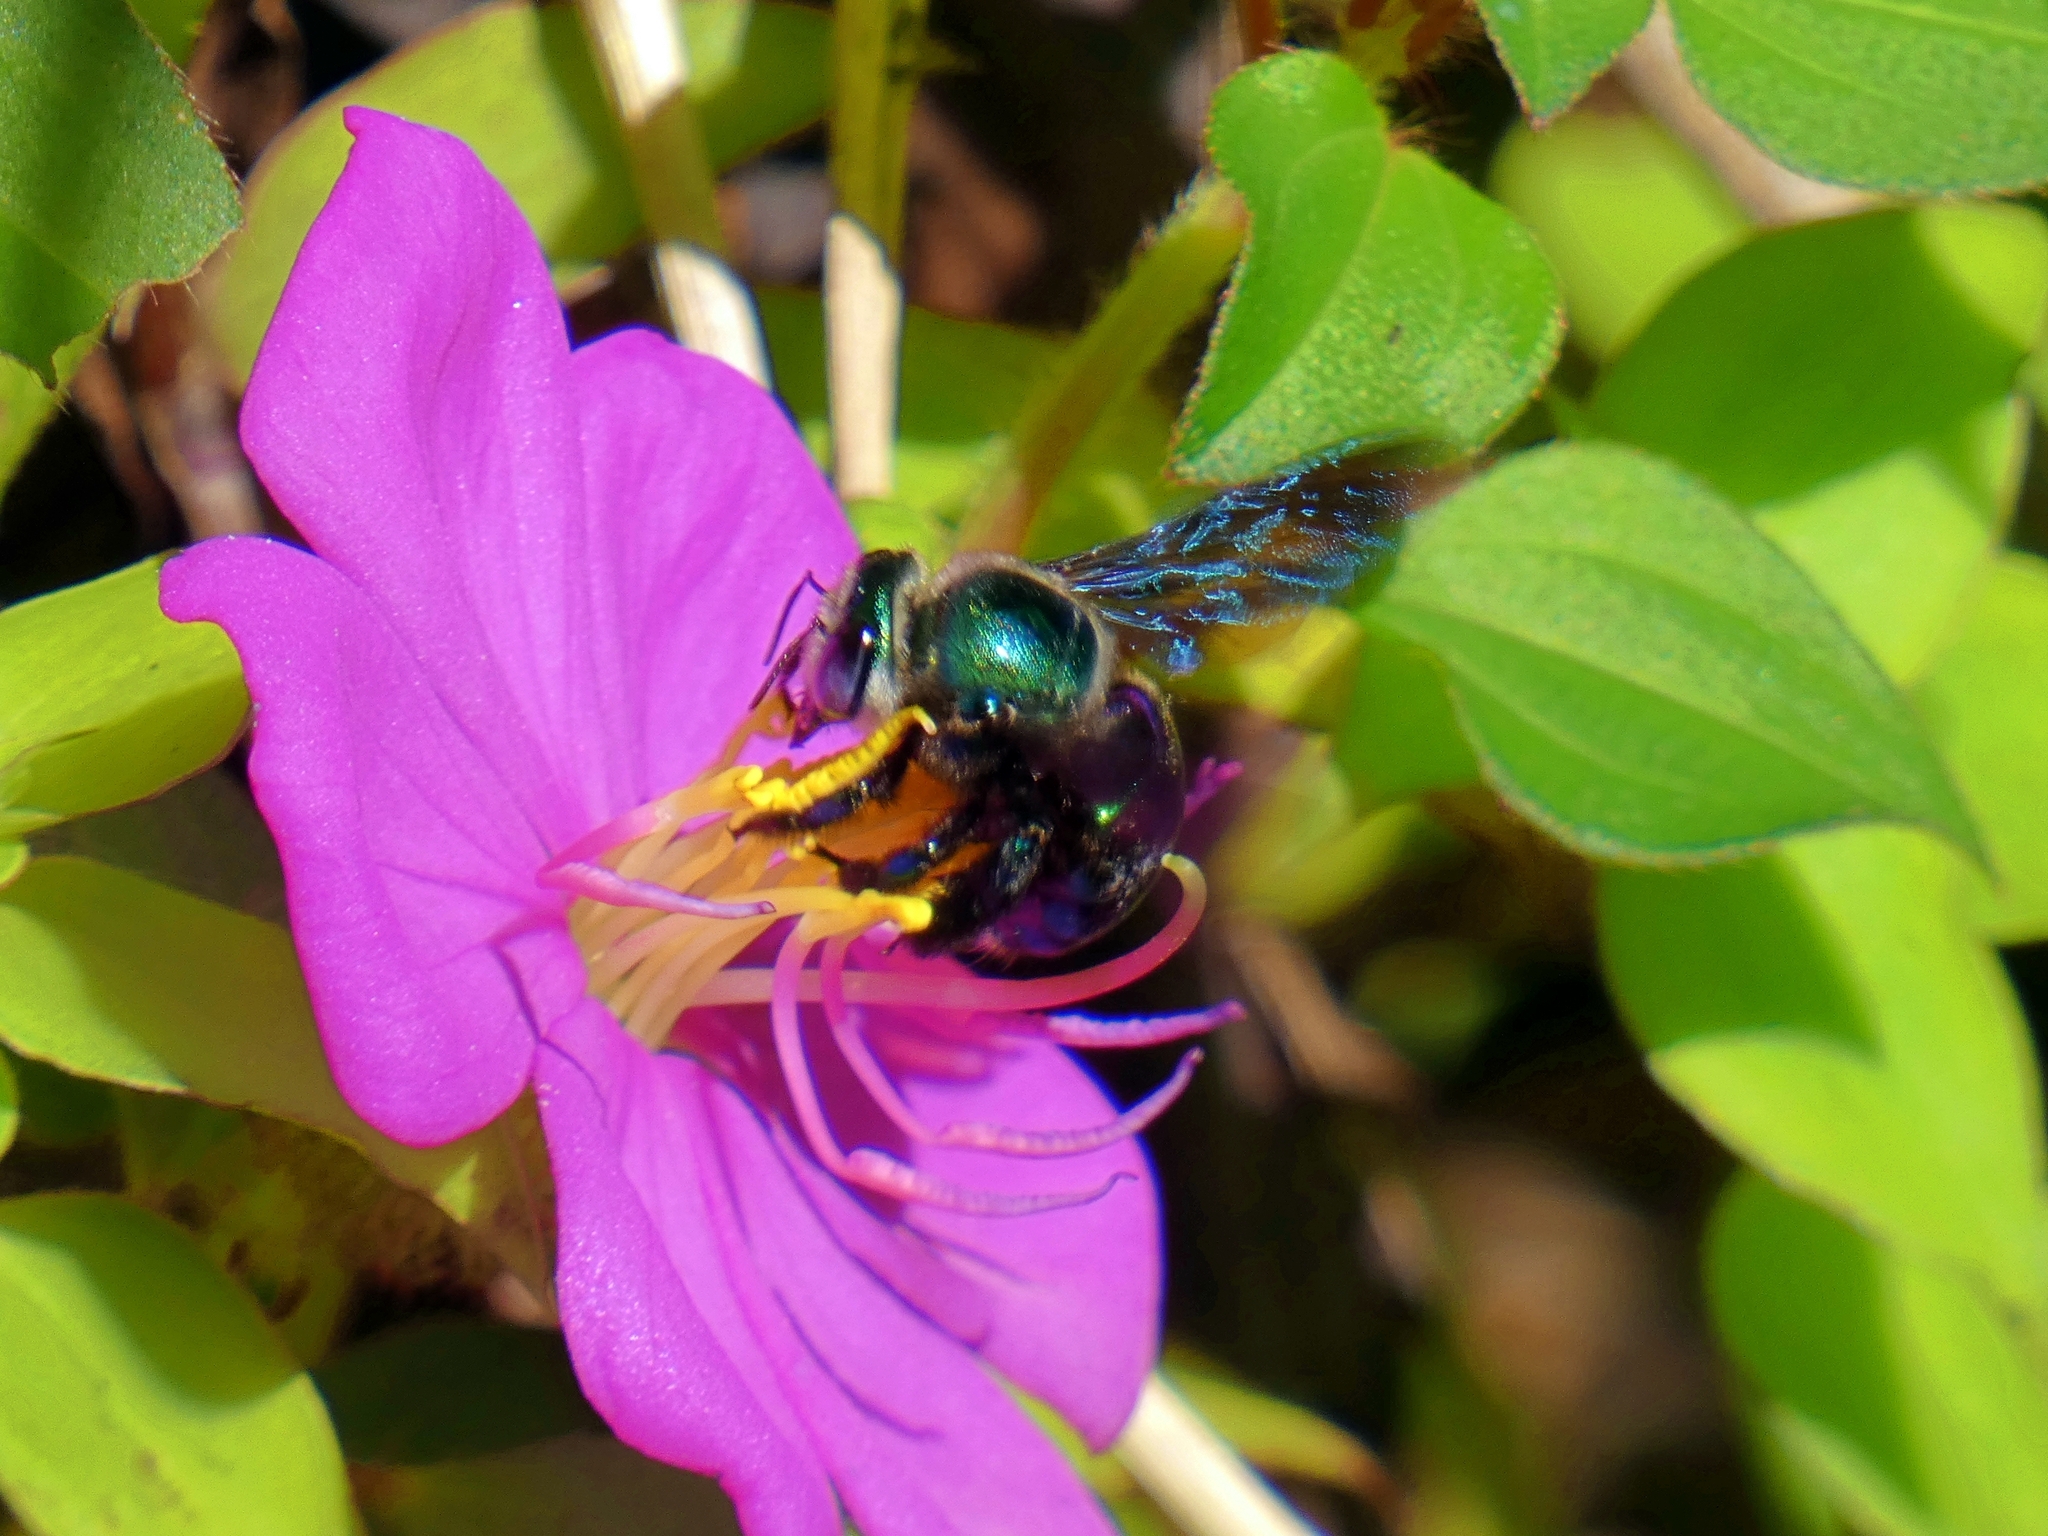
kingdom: Animalia
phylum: Arthropoda
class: Insecta
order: Hymenoptera
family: Apidae
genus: Xylocopa
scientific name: Xylocopa bombylans
